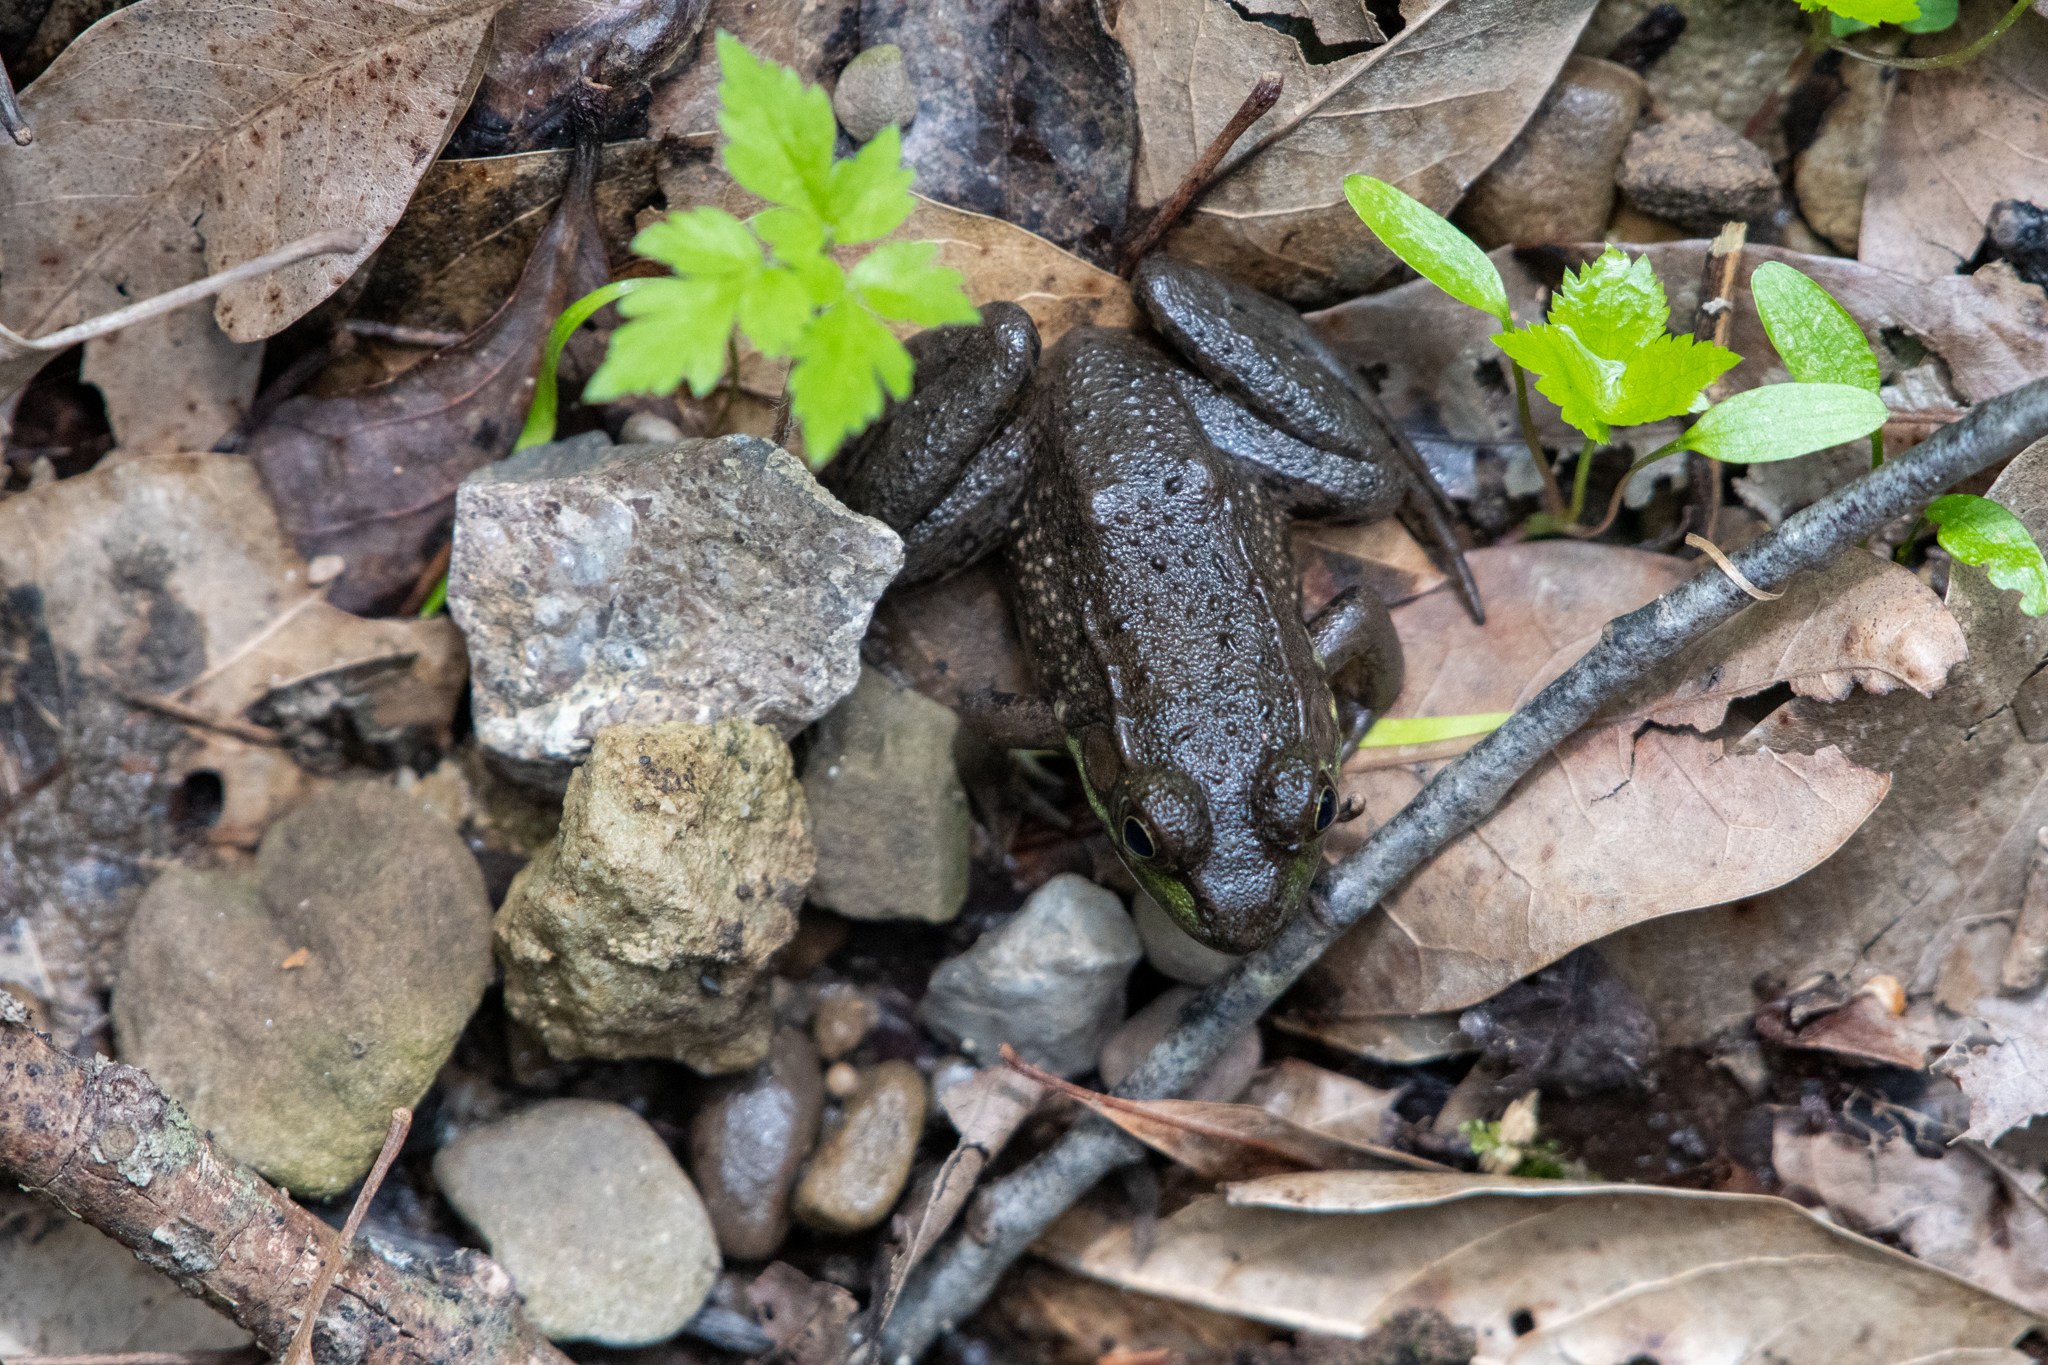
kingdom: Animalia
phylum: Chordata
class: Amphibia
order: Anura
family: Ranidae
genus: Lithobates
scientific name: Lithobates clamitans
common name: Green frog
